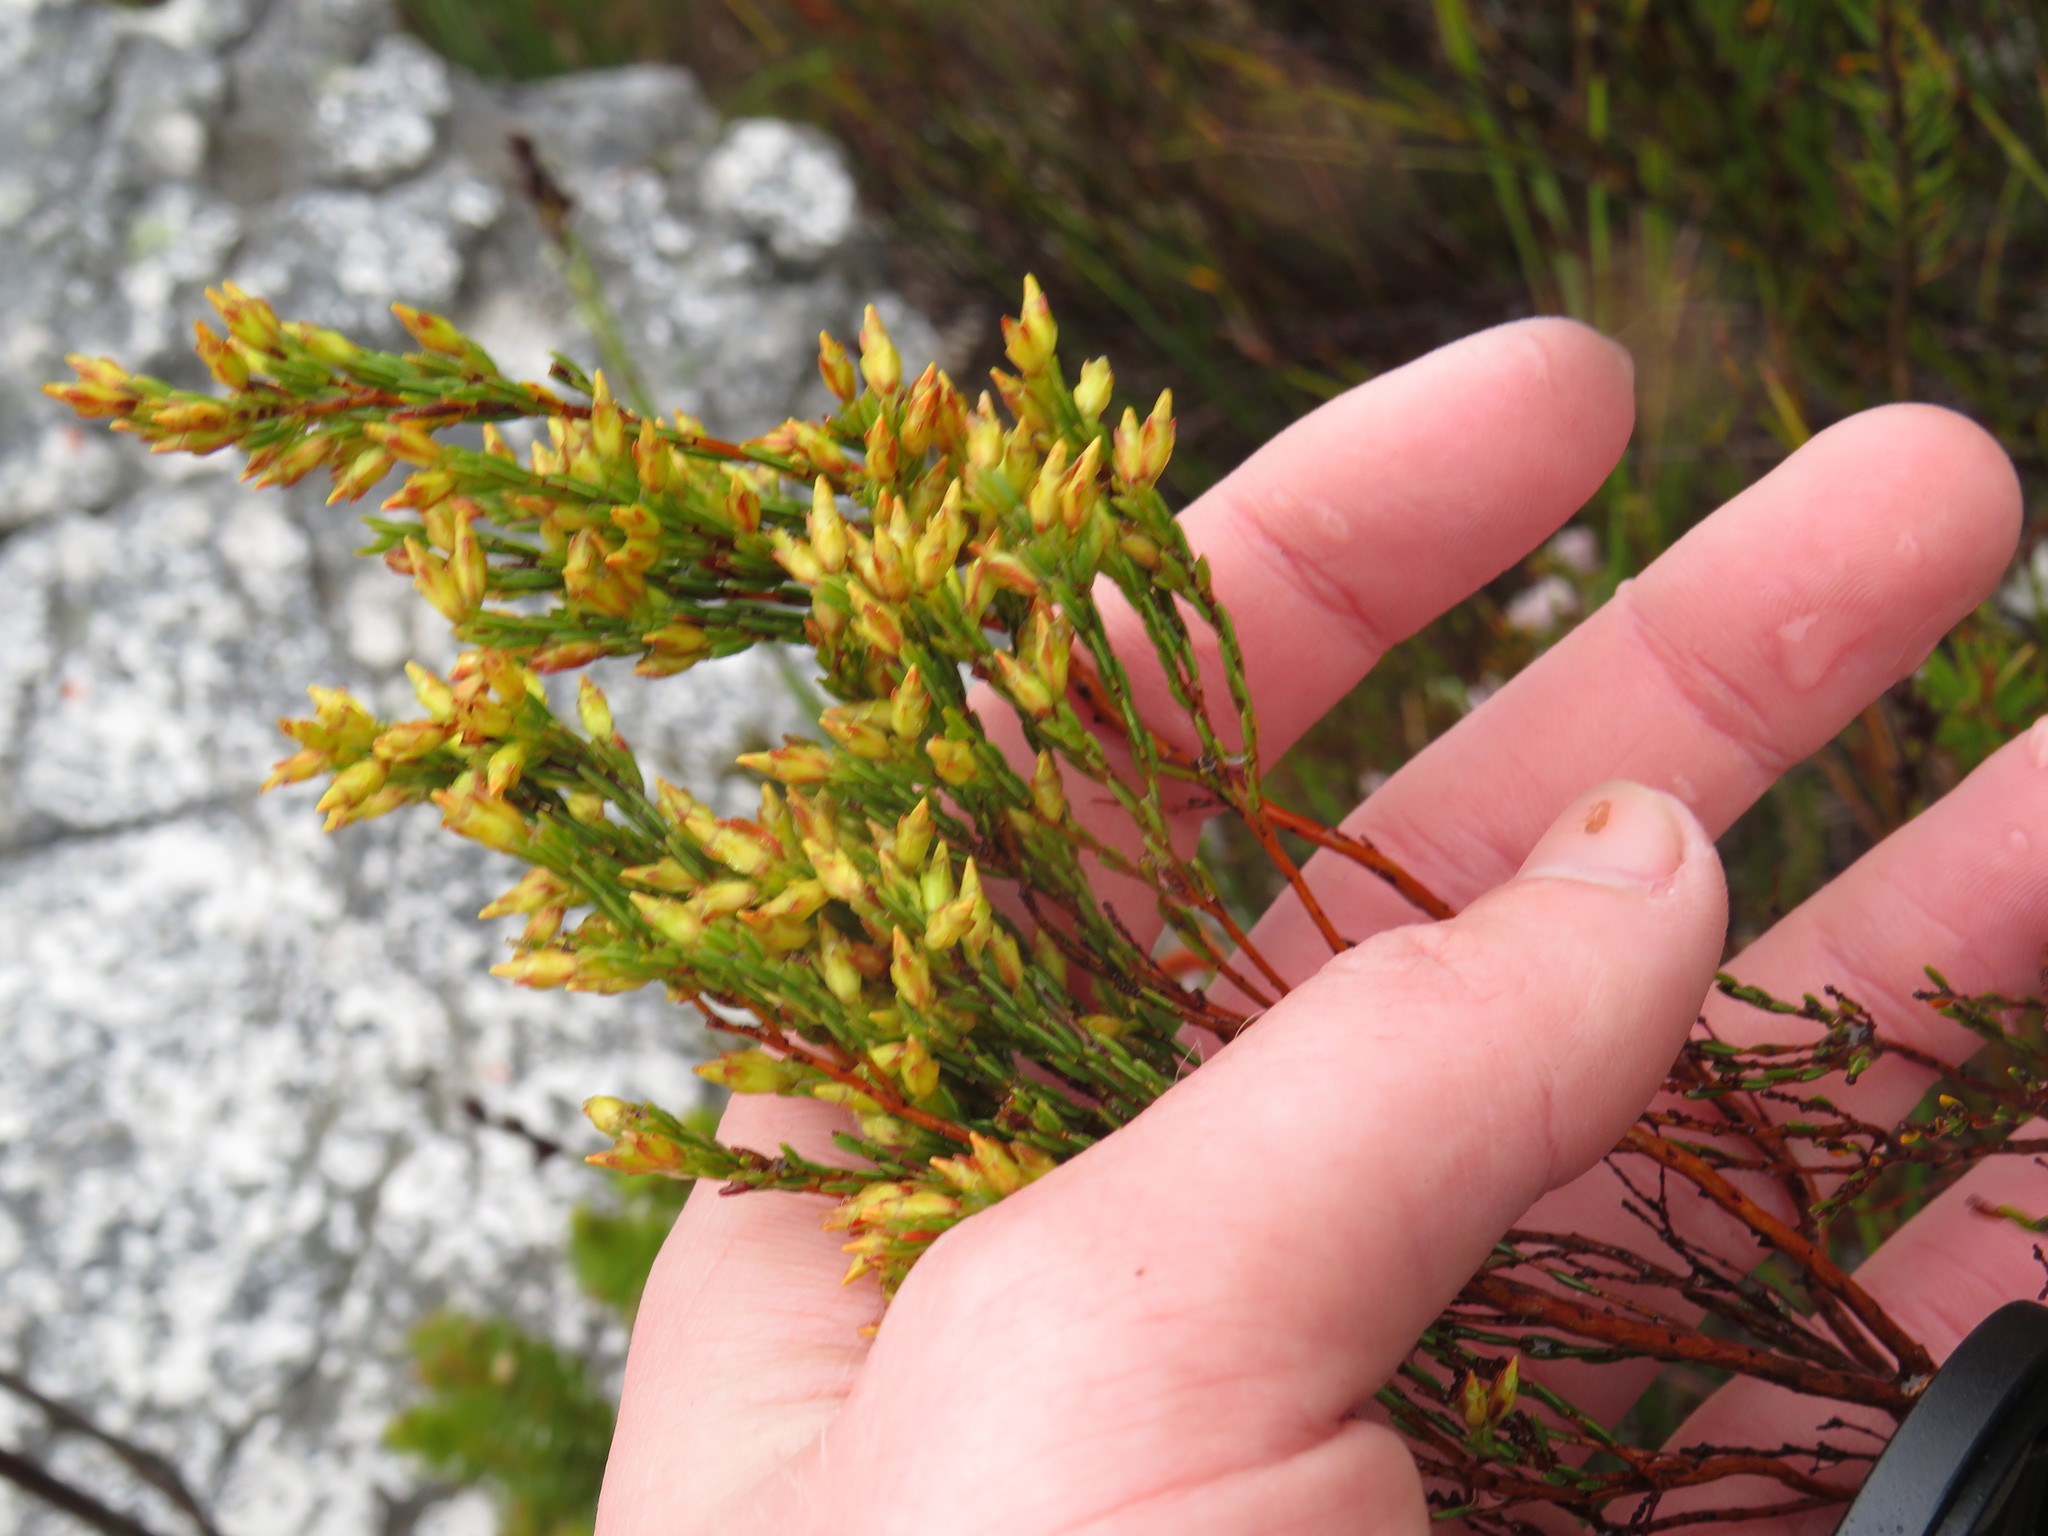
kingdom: Plantae
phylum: Tracheophyta
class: Magnoliopsida
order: Ericales
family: Ericaceae
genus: Erica
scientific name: Erica lutea
